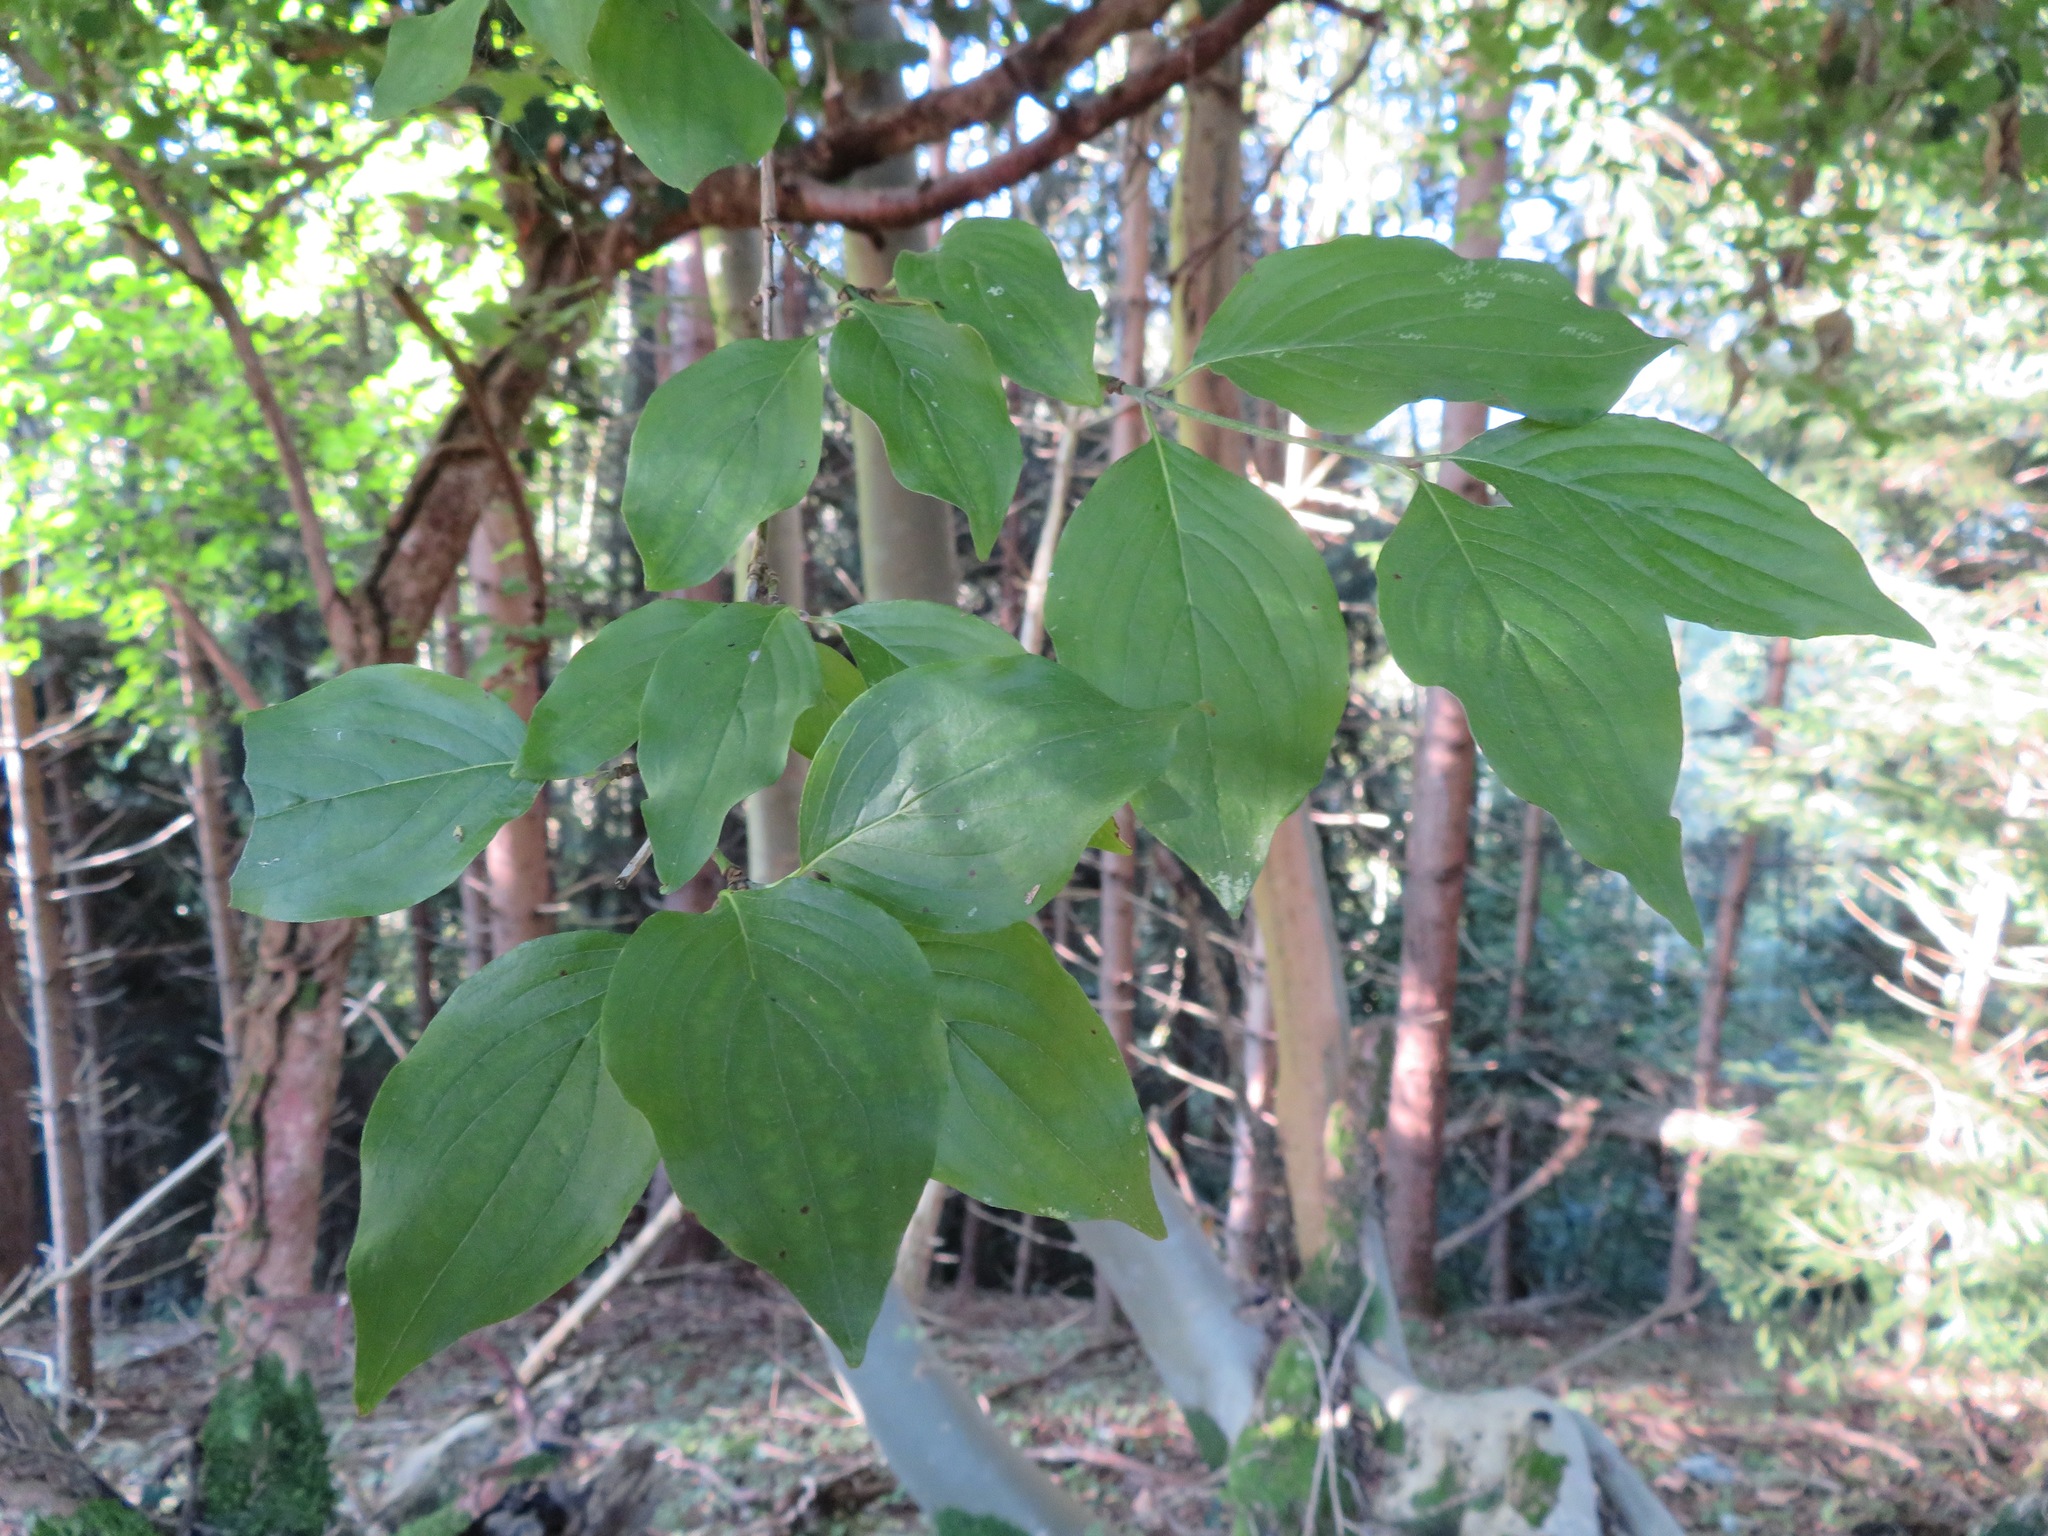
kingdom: Plantae
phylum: Tracheophyta
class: Magnoliopsida
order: Cornales
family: Cornaceae
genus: Cornus
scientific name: Cornus mas
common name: Cornelian-cherry
